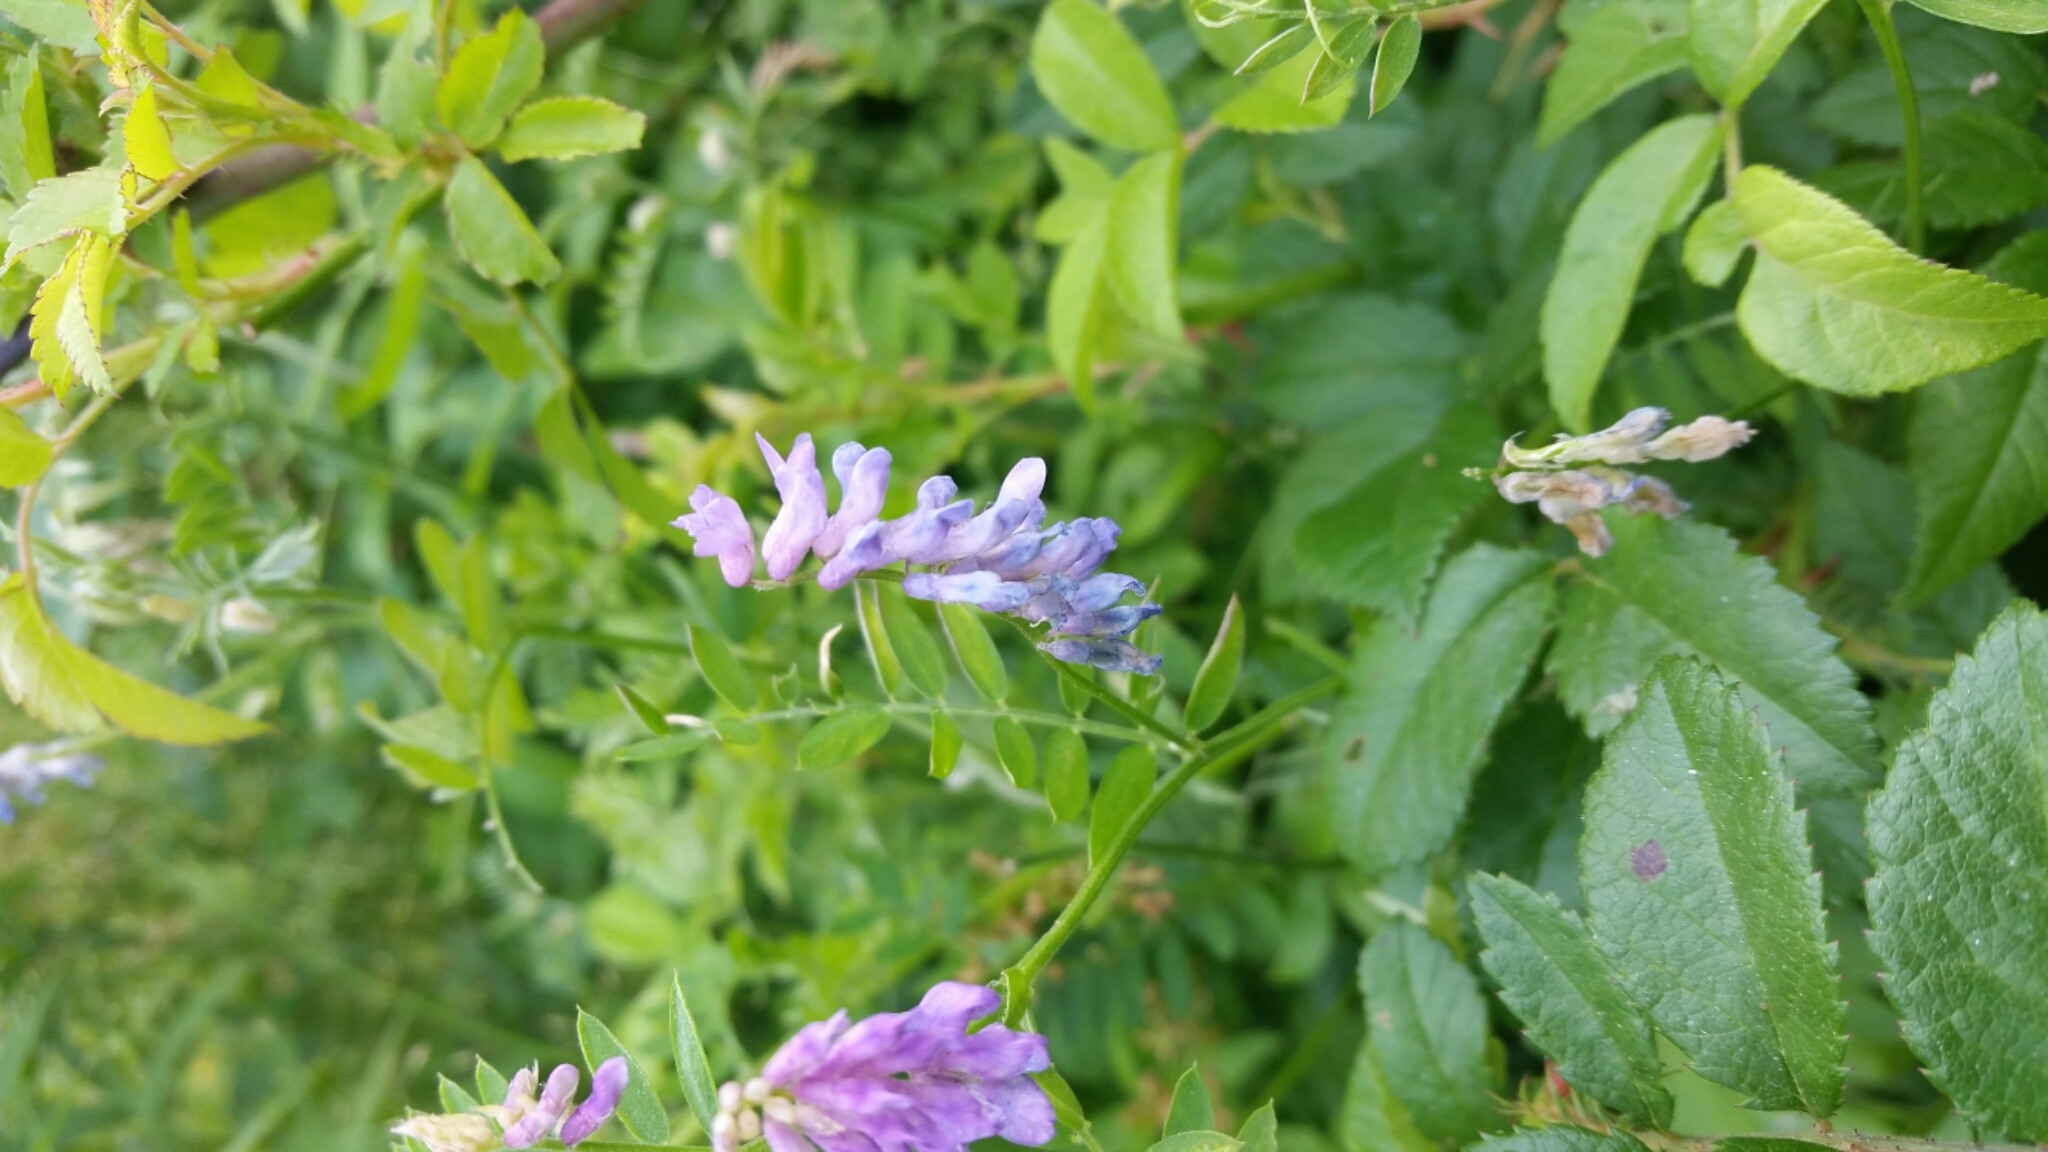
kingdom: Plantae
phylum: Tracheophyta
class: Magnoliopsida
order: Fabales
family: Fabaceae
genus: Vicia
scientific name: Vicia cracca
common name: Bird vetch
